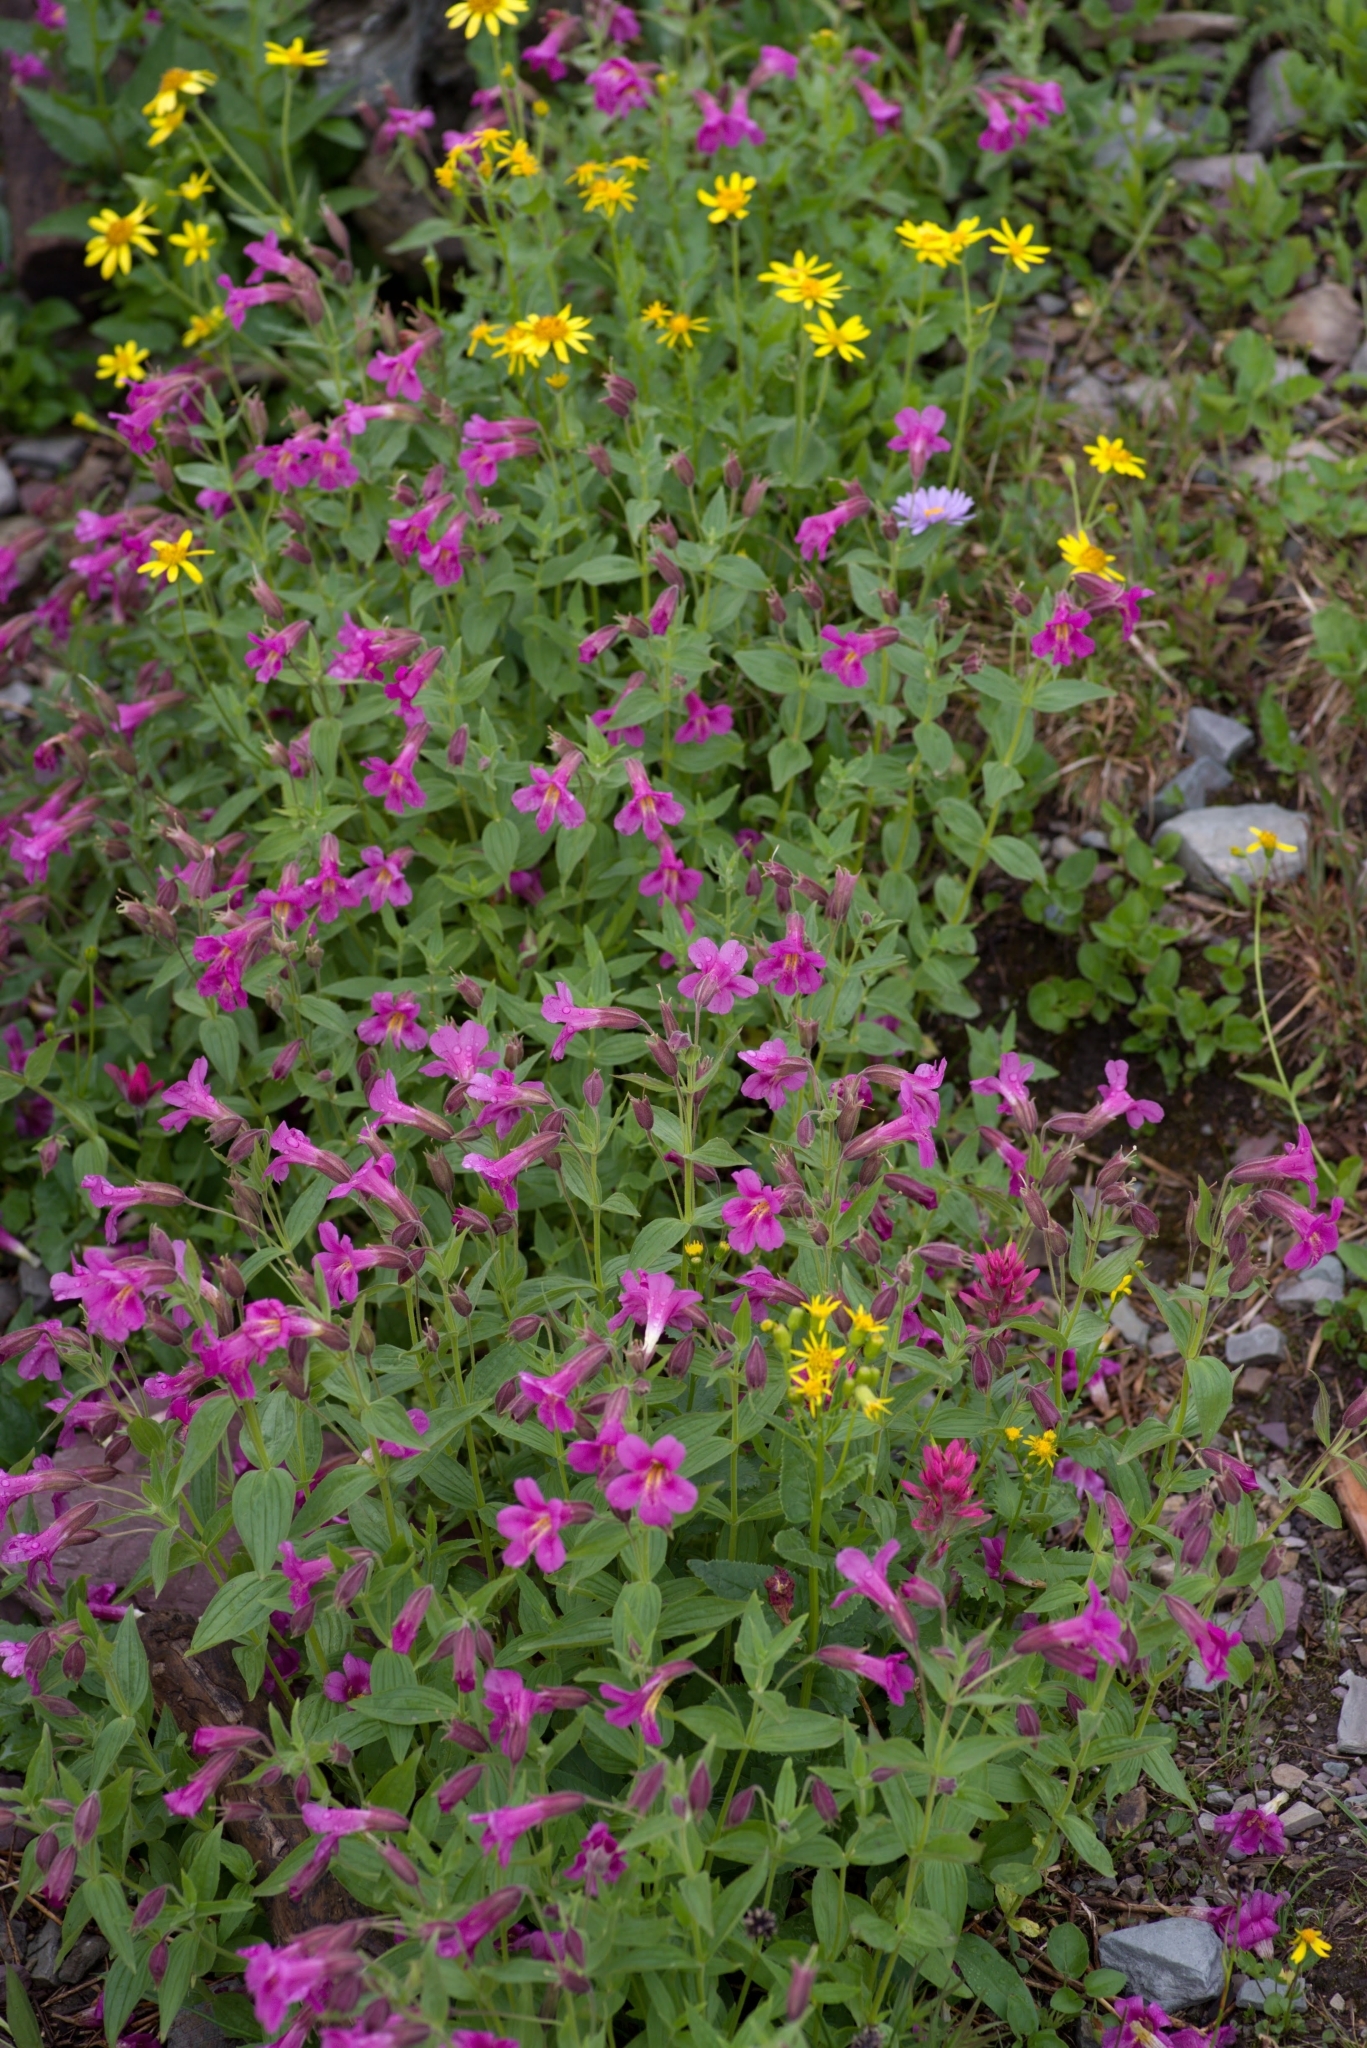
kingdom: Plantae
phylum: Tracheophyta
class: Magnoliopsida
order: Lamiales
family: Phrymaceae
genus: Erythranthe
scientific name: Erythranthe lewisii
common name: Lewis's monkey-flower
